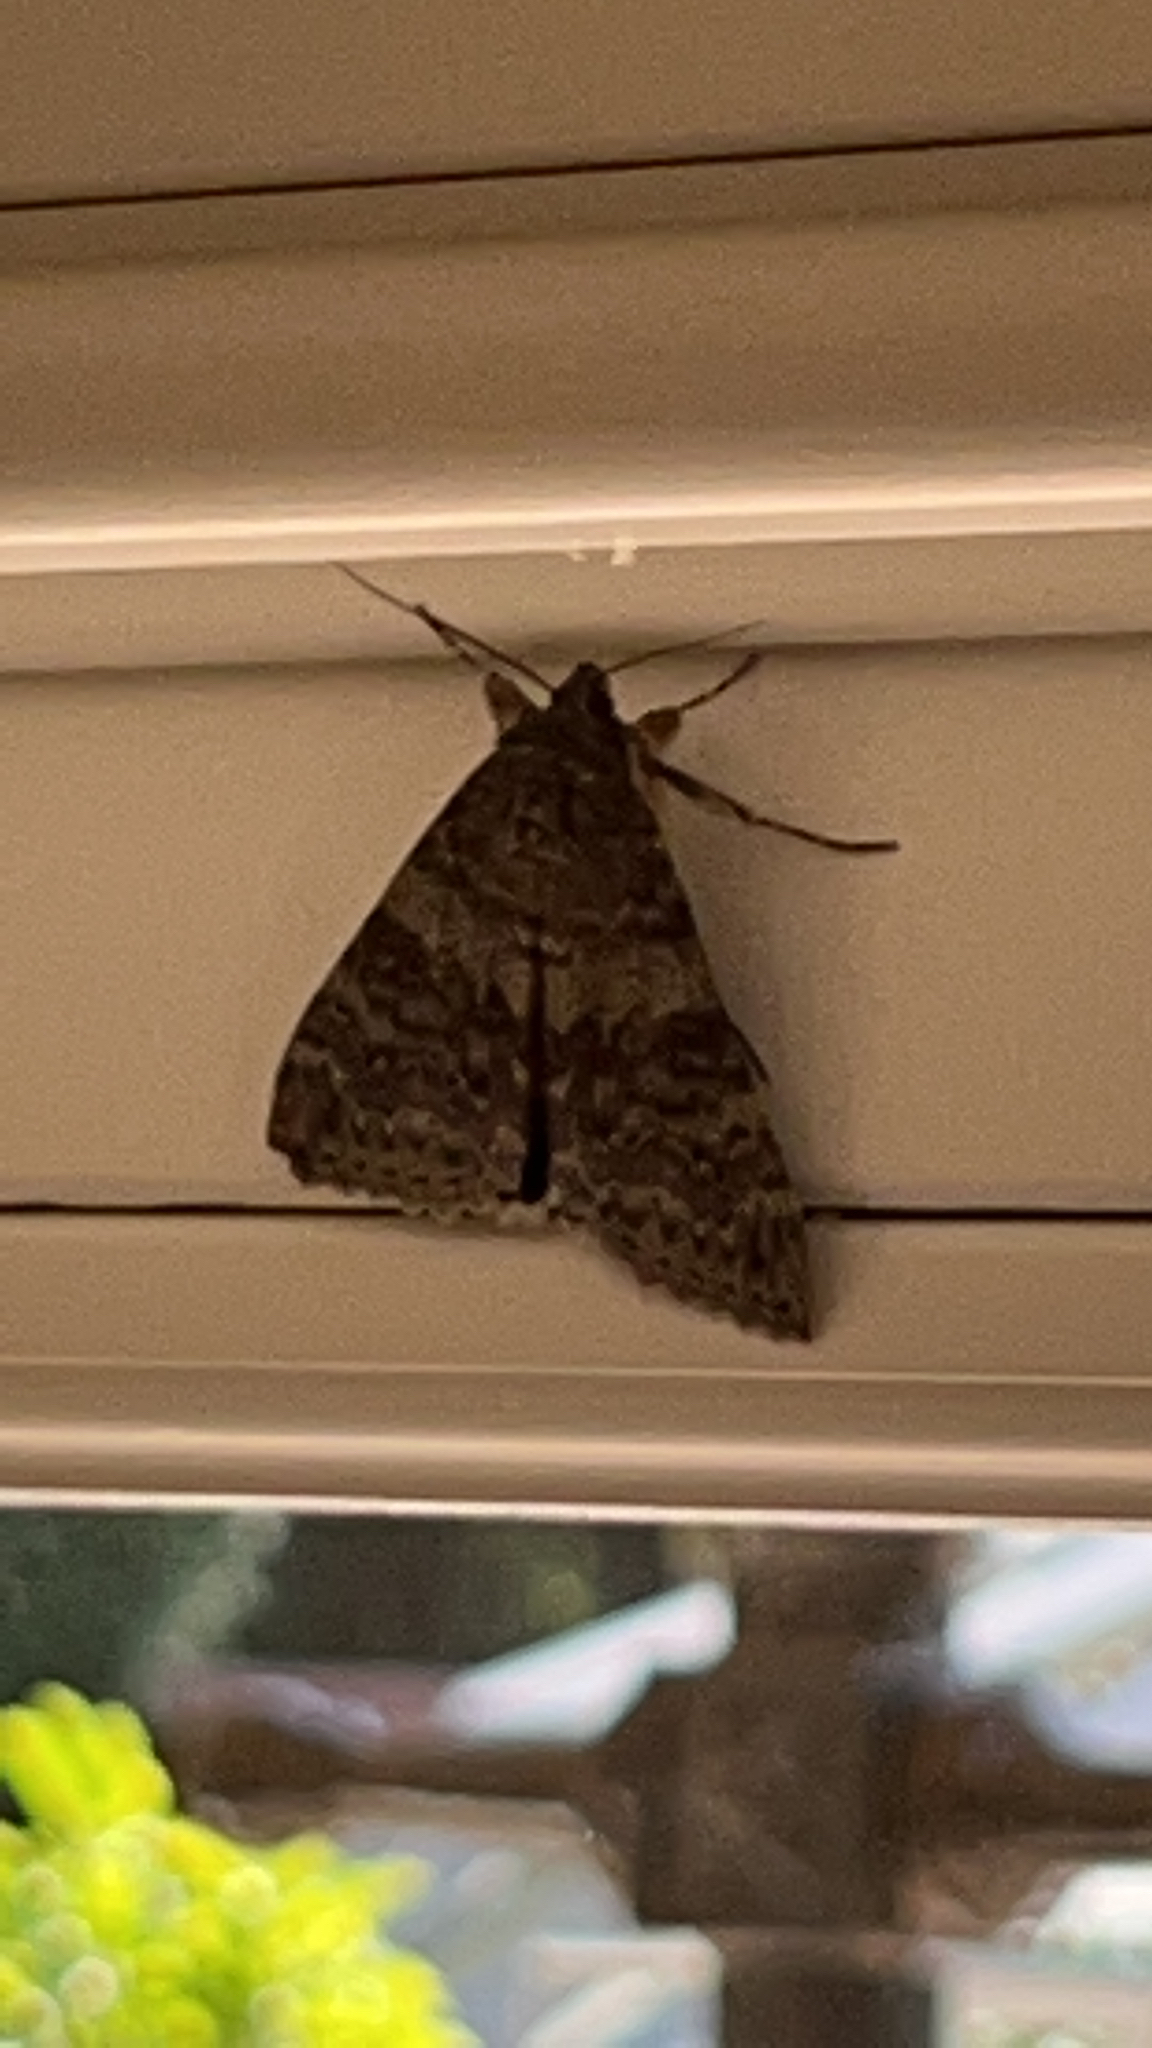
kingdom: Animalia
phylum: Arthropoda
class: Insecta
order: Lepidoptera
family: Erebidae
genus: Catocala
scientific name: Catocala nupta
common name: Red underwing
